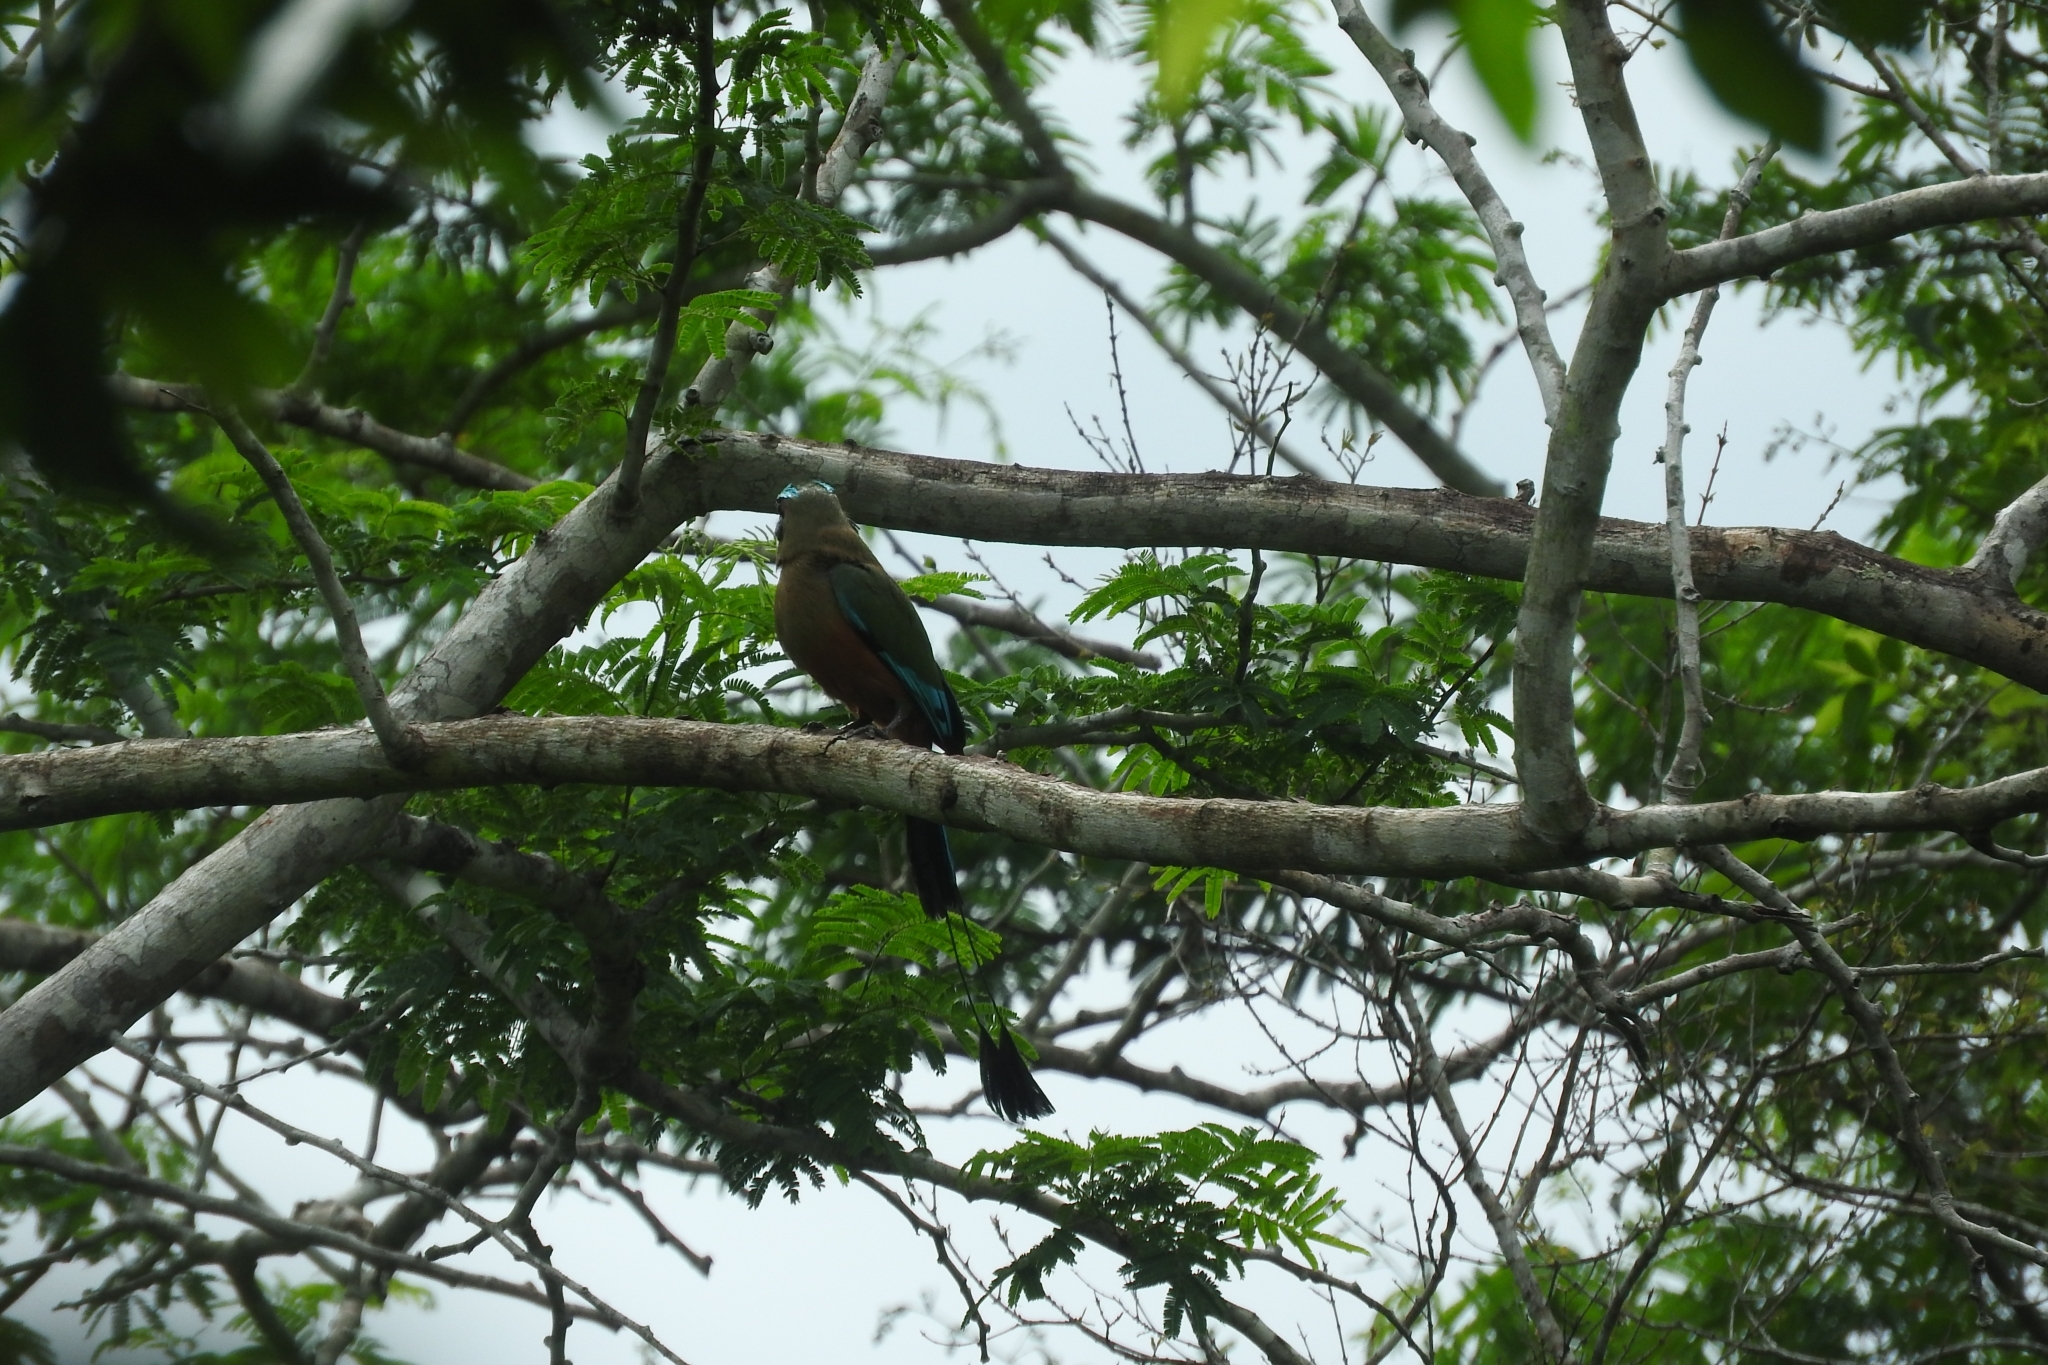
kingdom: Animalia
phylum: Chordata
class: Aves
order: Coraciiformes
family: Momotidae
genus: Eumomota
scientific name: Eumomota superciliosa
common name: Turquoise-browed motmot
